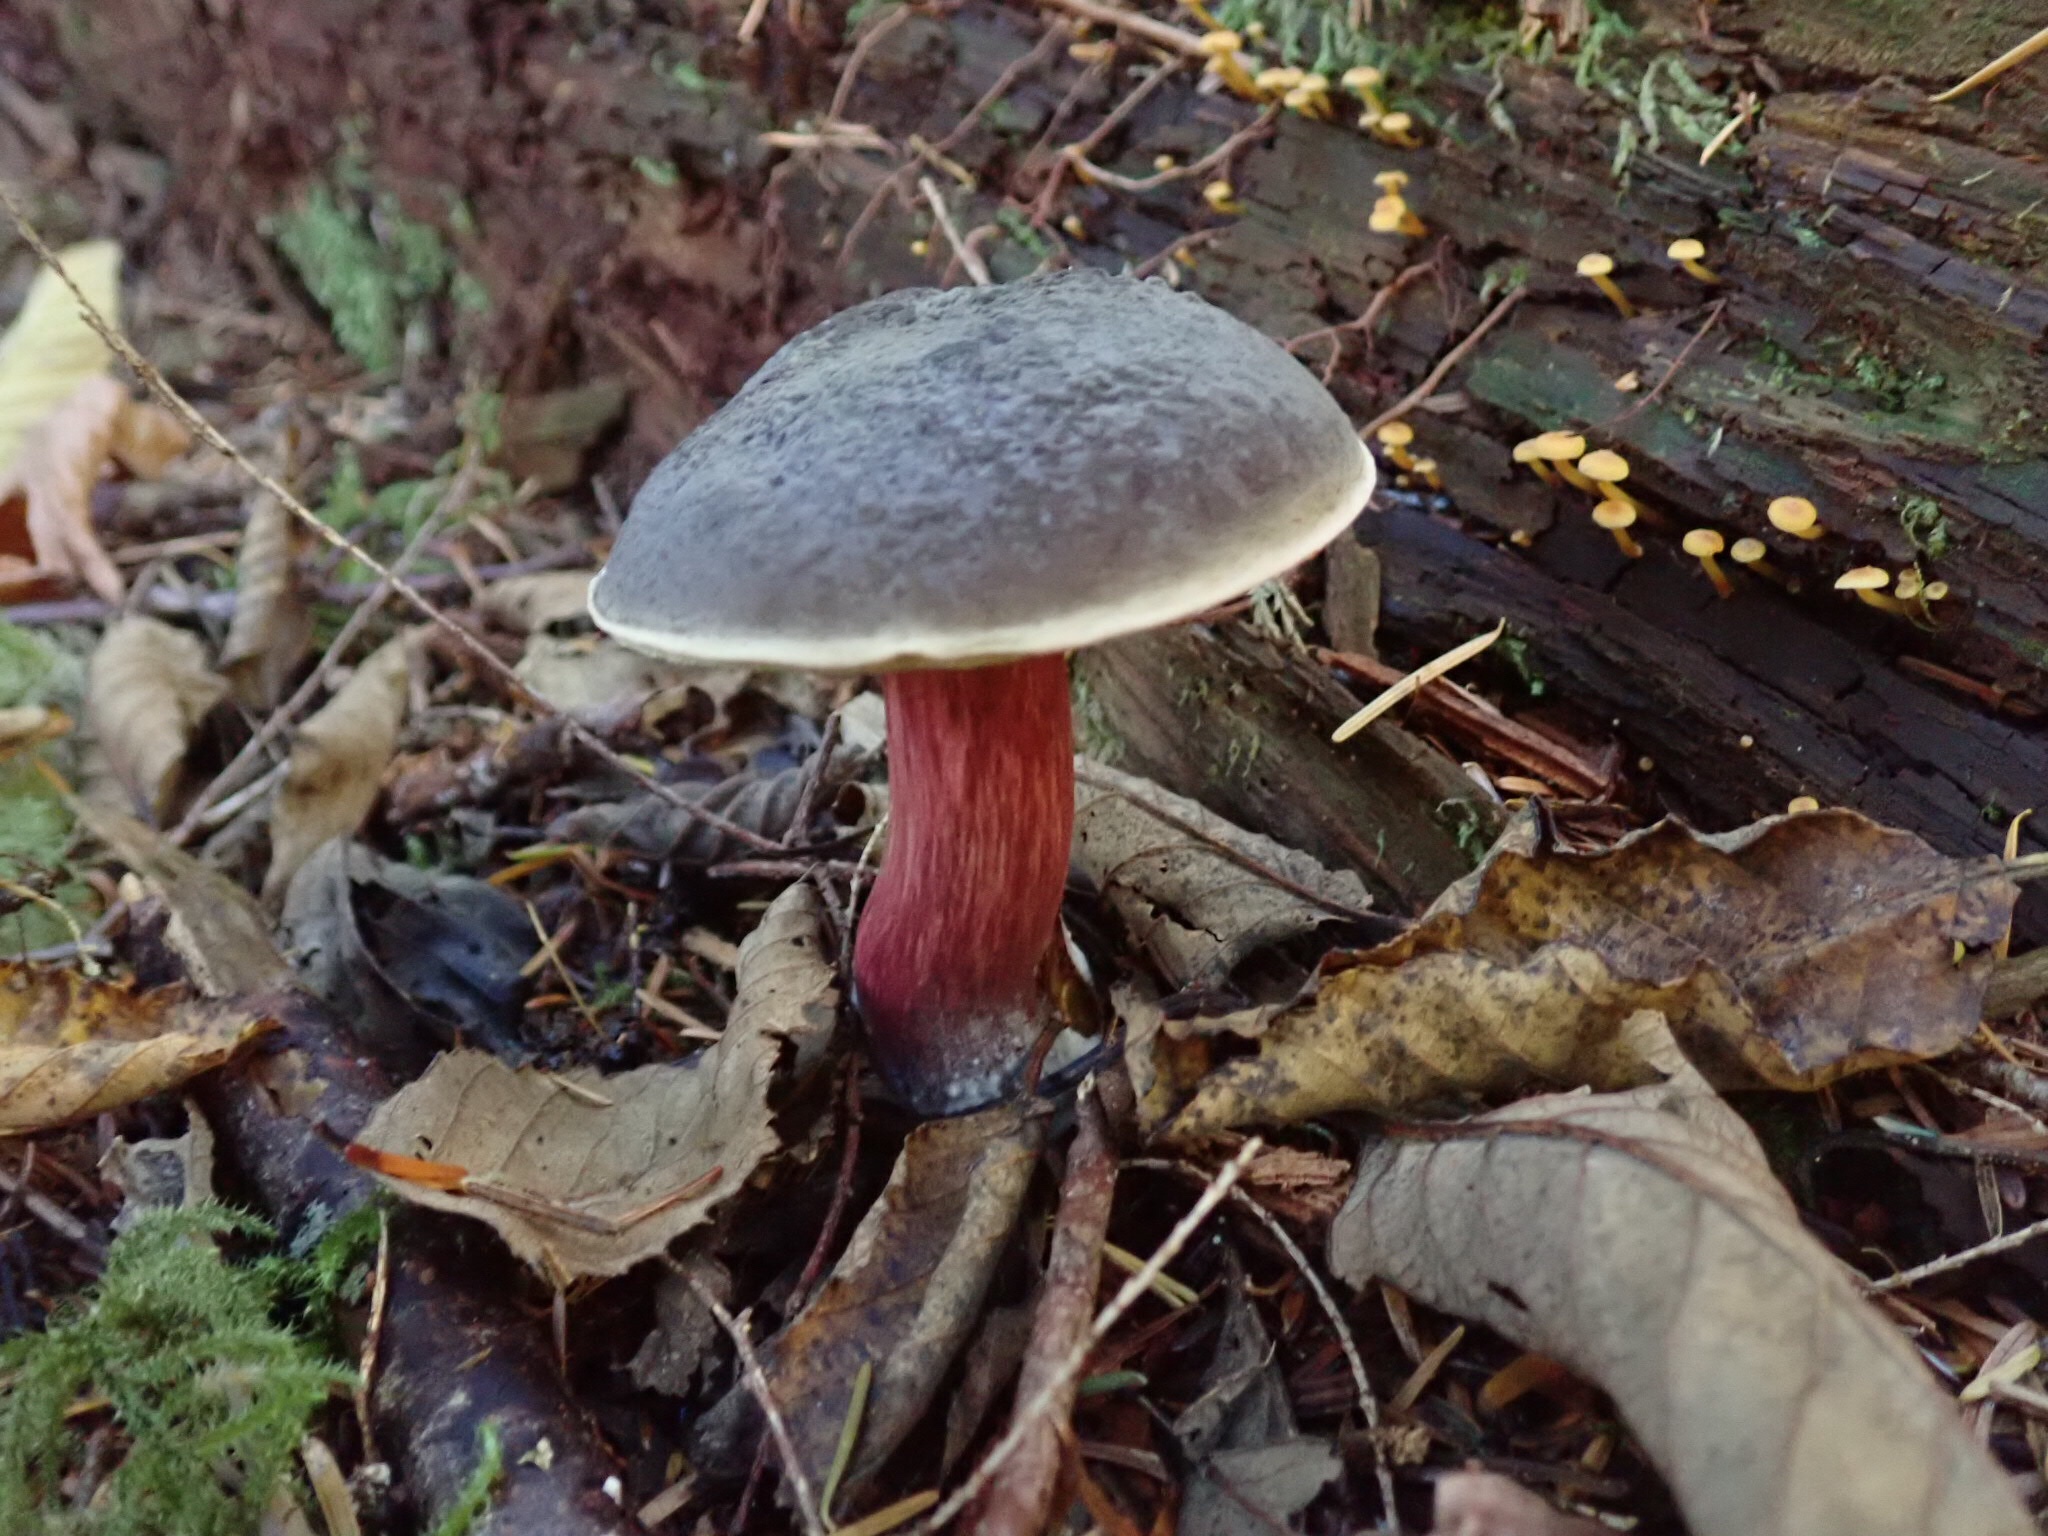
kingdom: Fungi
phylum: Basidiomycota
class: Agaricomycetes
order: Boletales
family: Boletaceae
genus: Xerocomellus
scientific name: Xerocomellus atropurpureus
